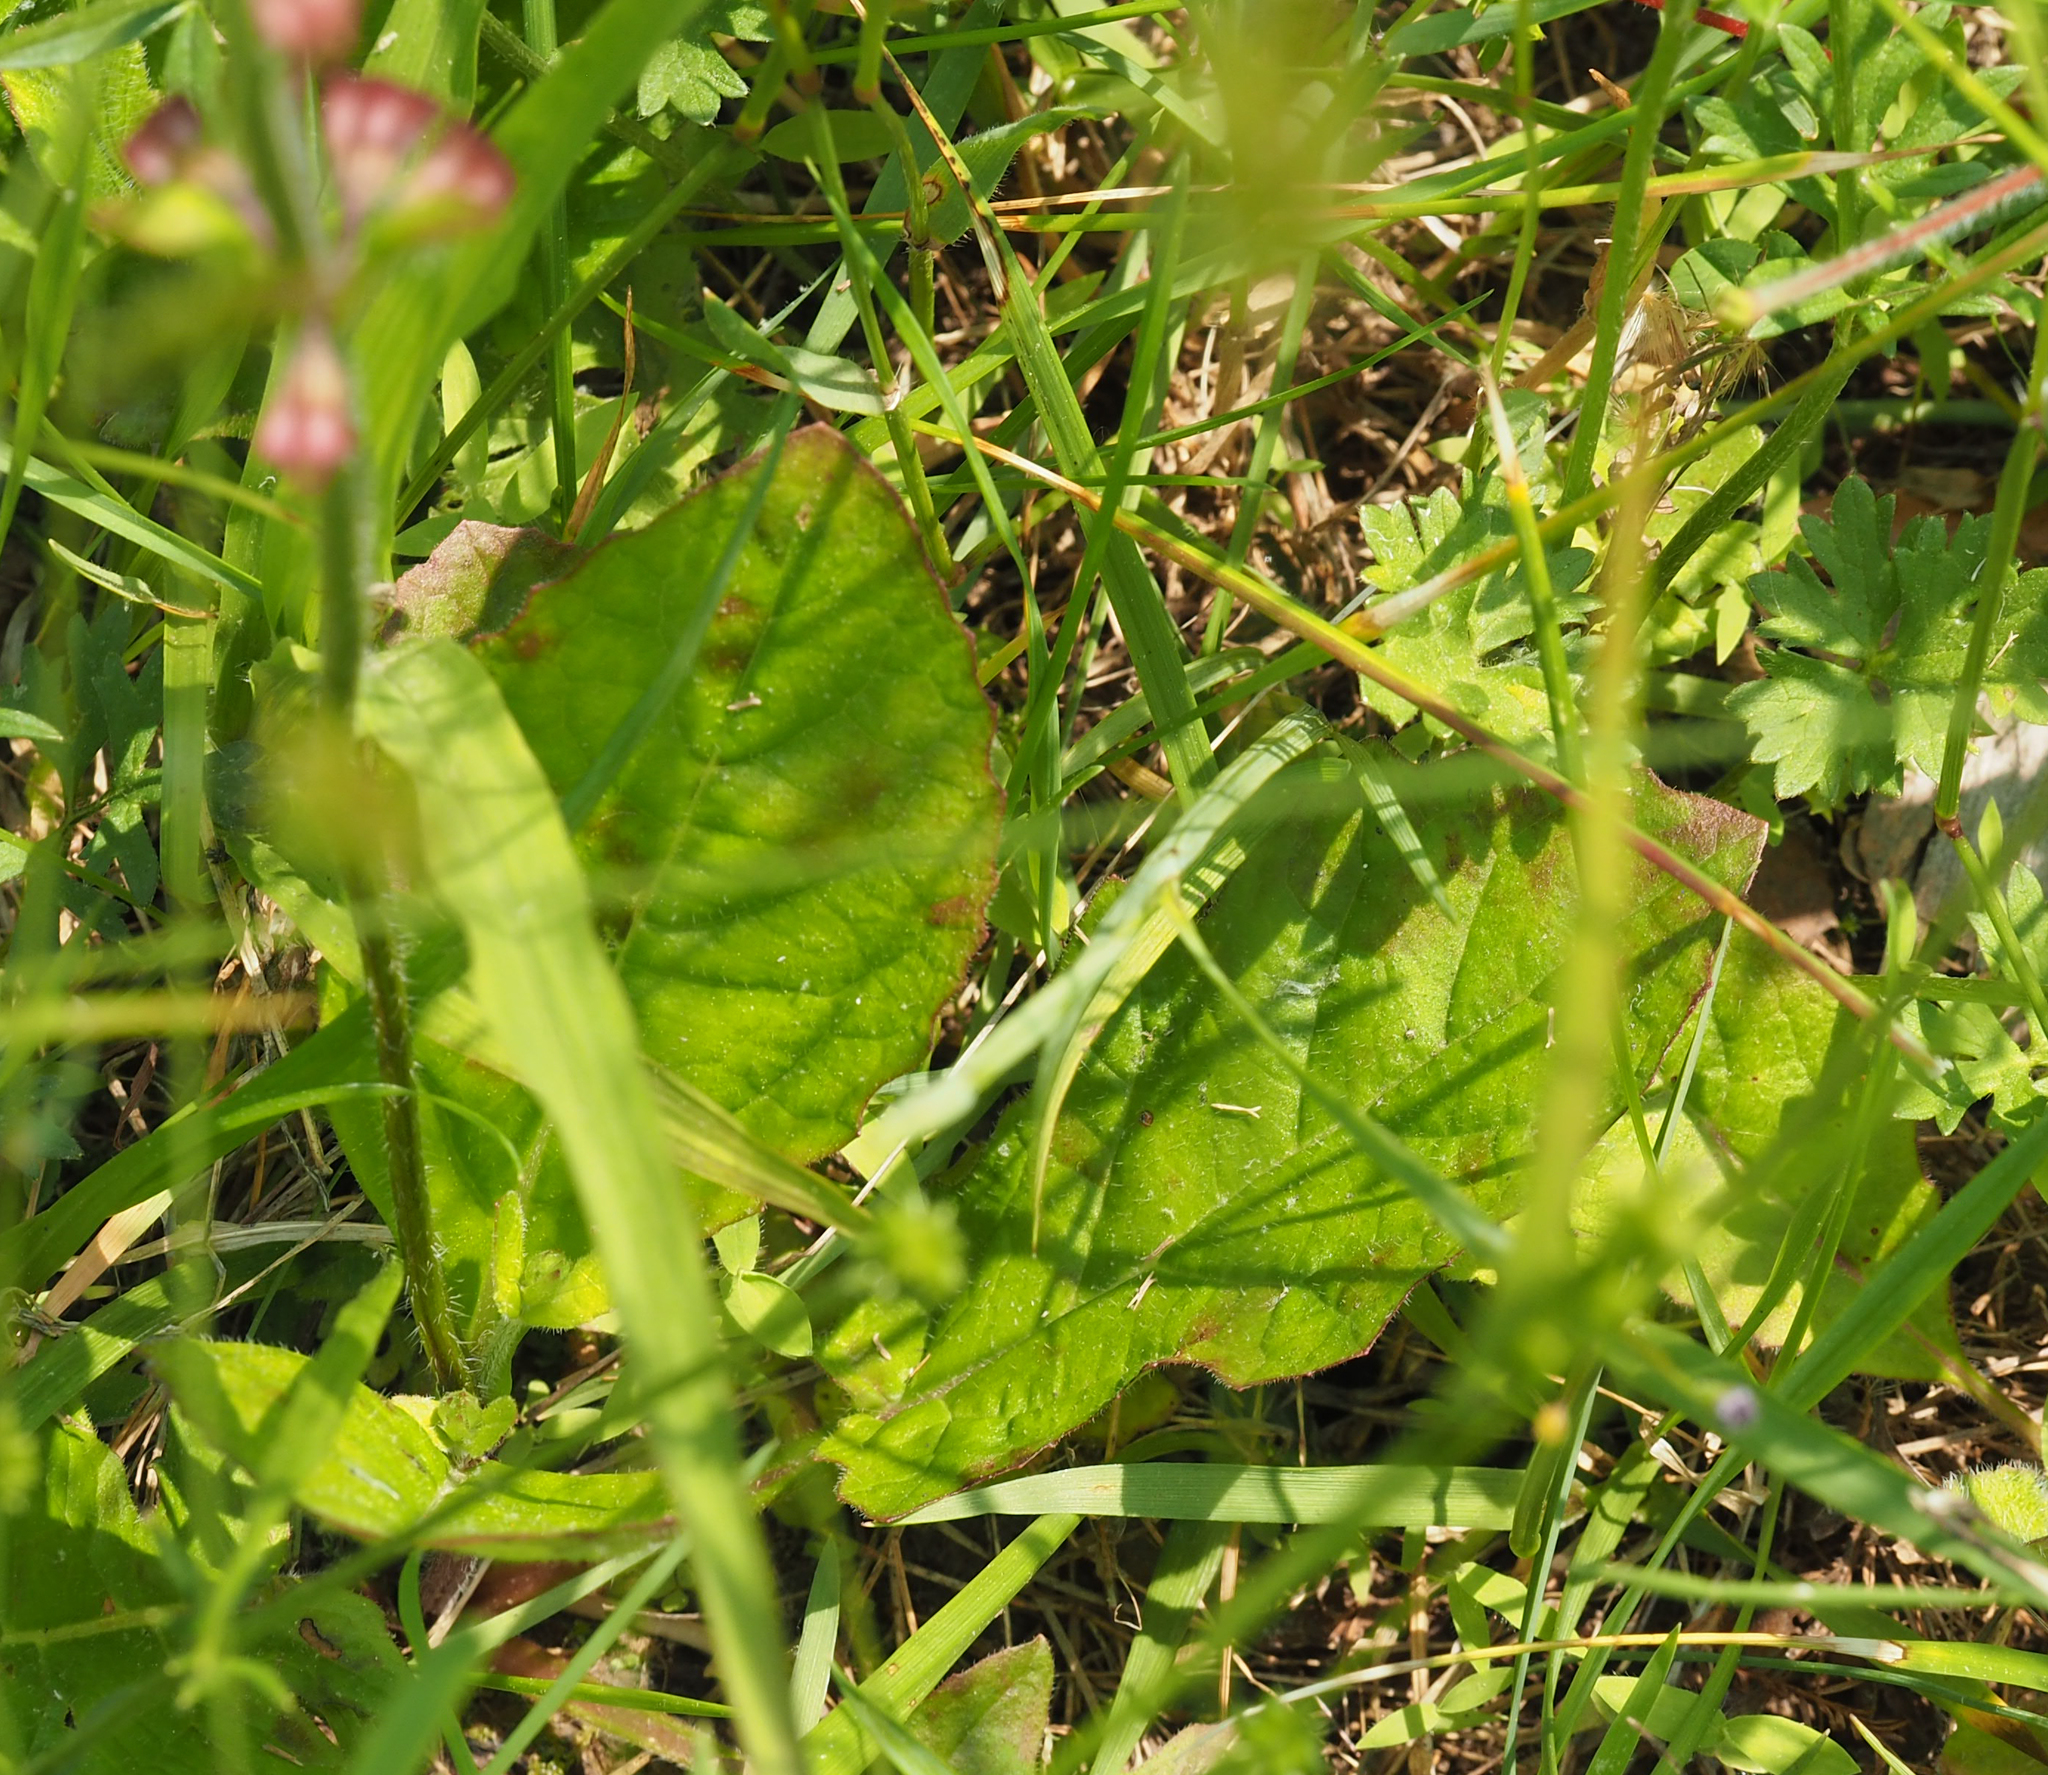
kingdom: Plantae
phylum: Tracheophyta
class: Magnoliopsida
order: Lamiales
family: Lamiaceae
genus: Salvia
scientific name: Salvia lyrata
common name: Cancerweed
